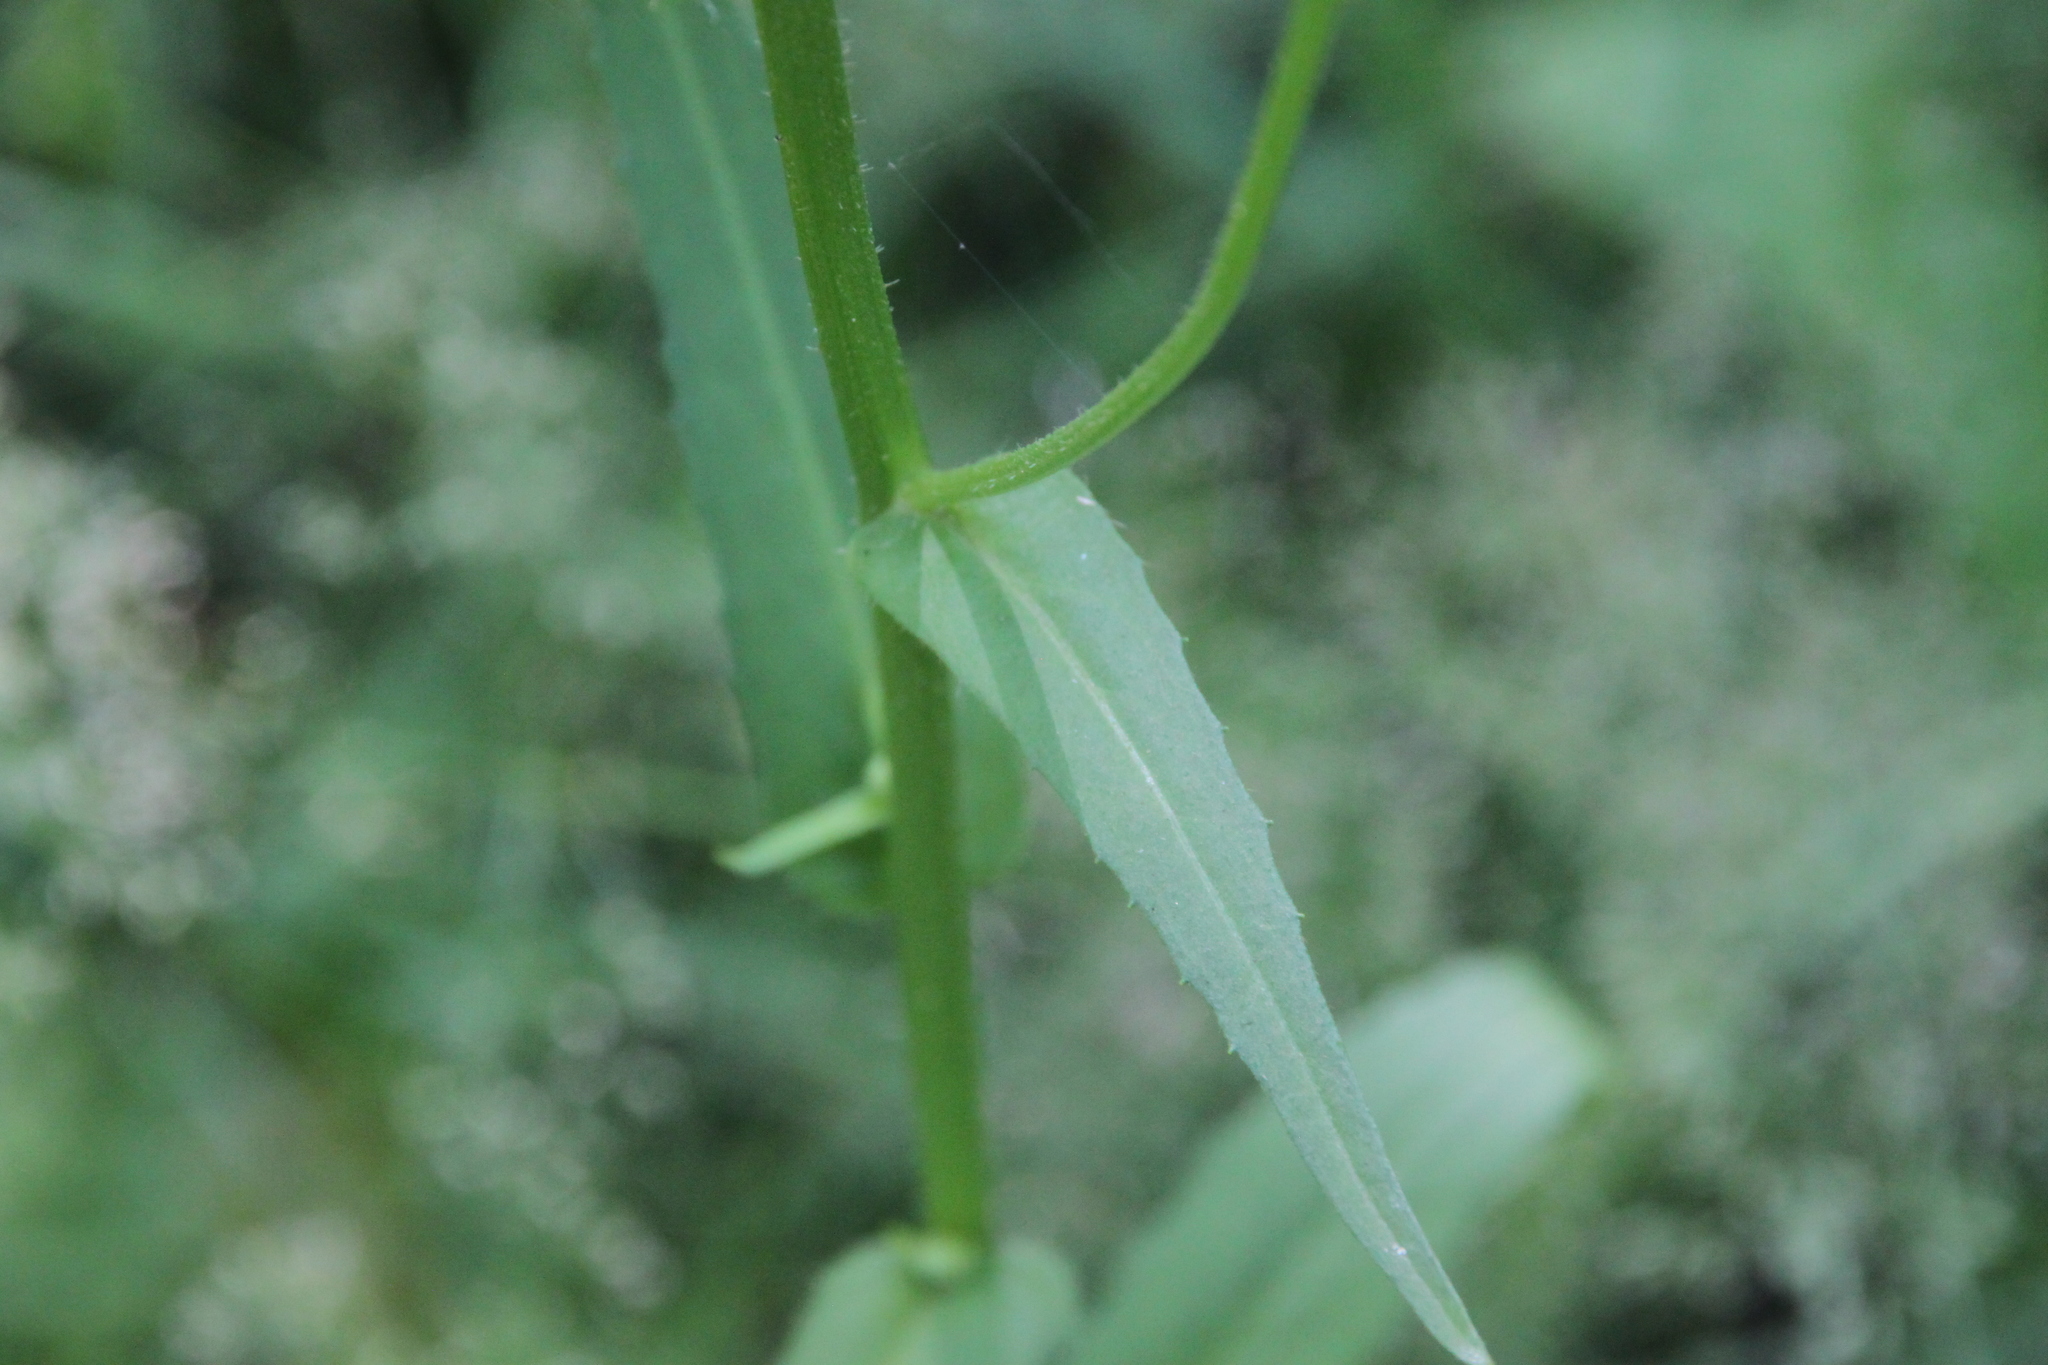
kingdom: Plantae
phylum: Tracheophyta
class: Magnoliopsida
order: Asterales
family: Asteraceae
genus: Picris
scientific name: Picris hieracioides
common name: Hawkweed oxtongue
